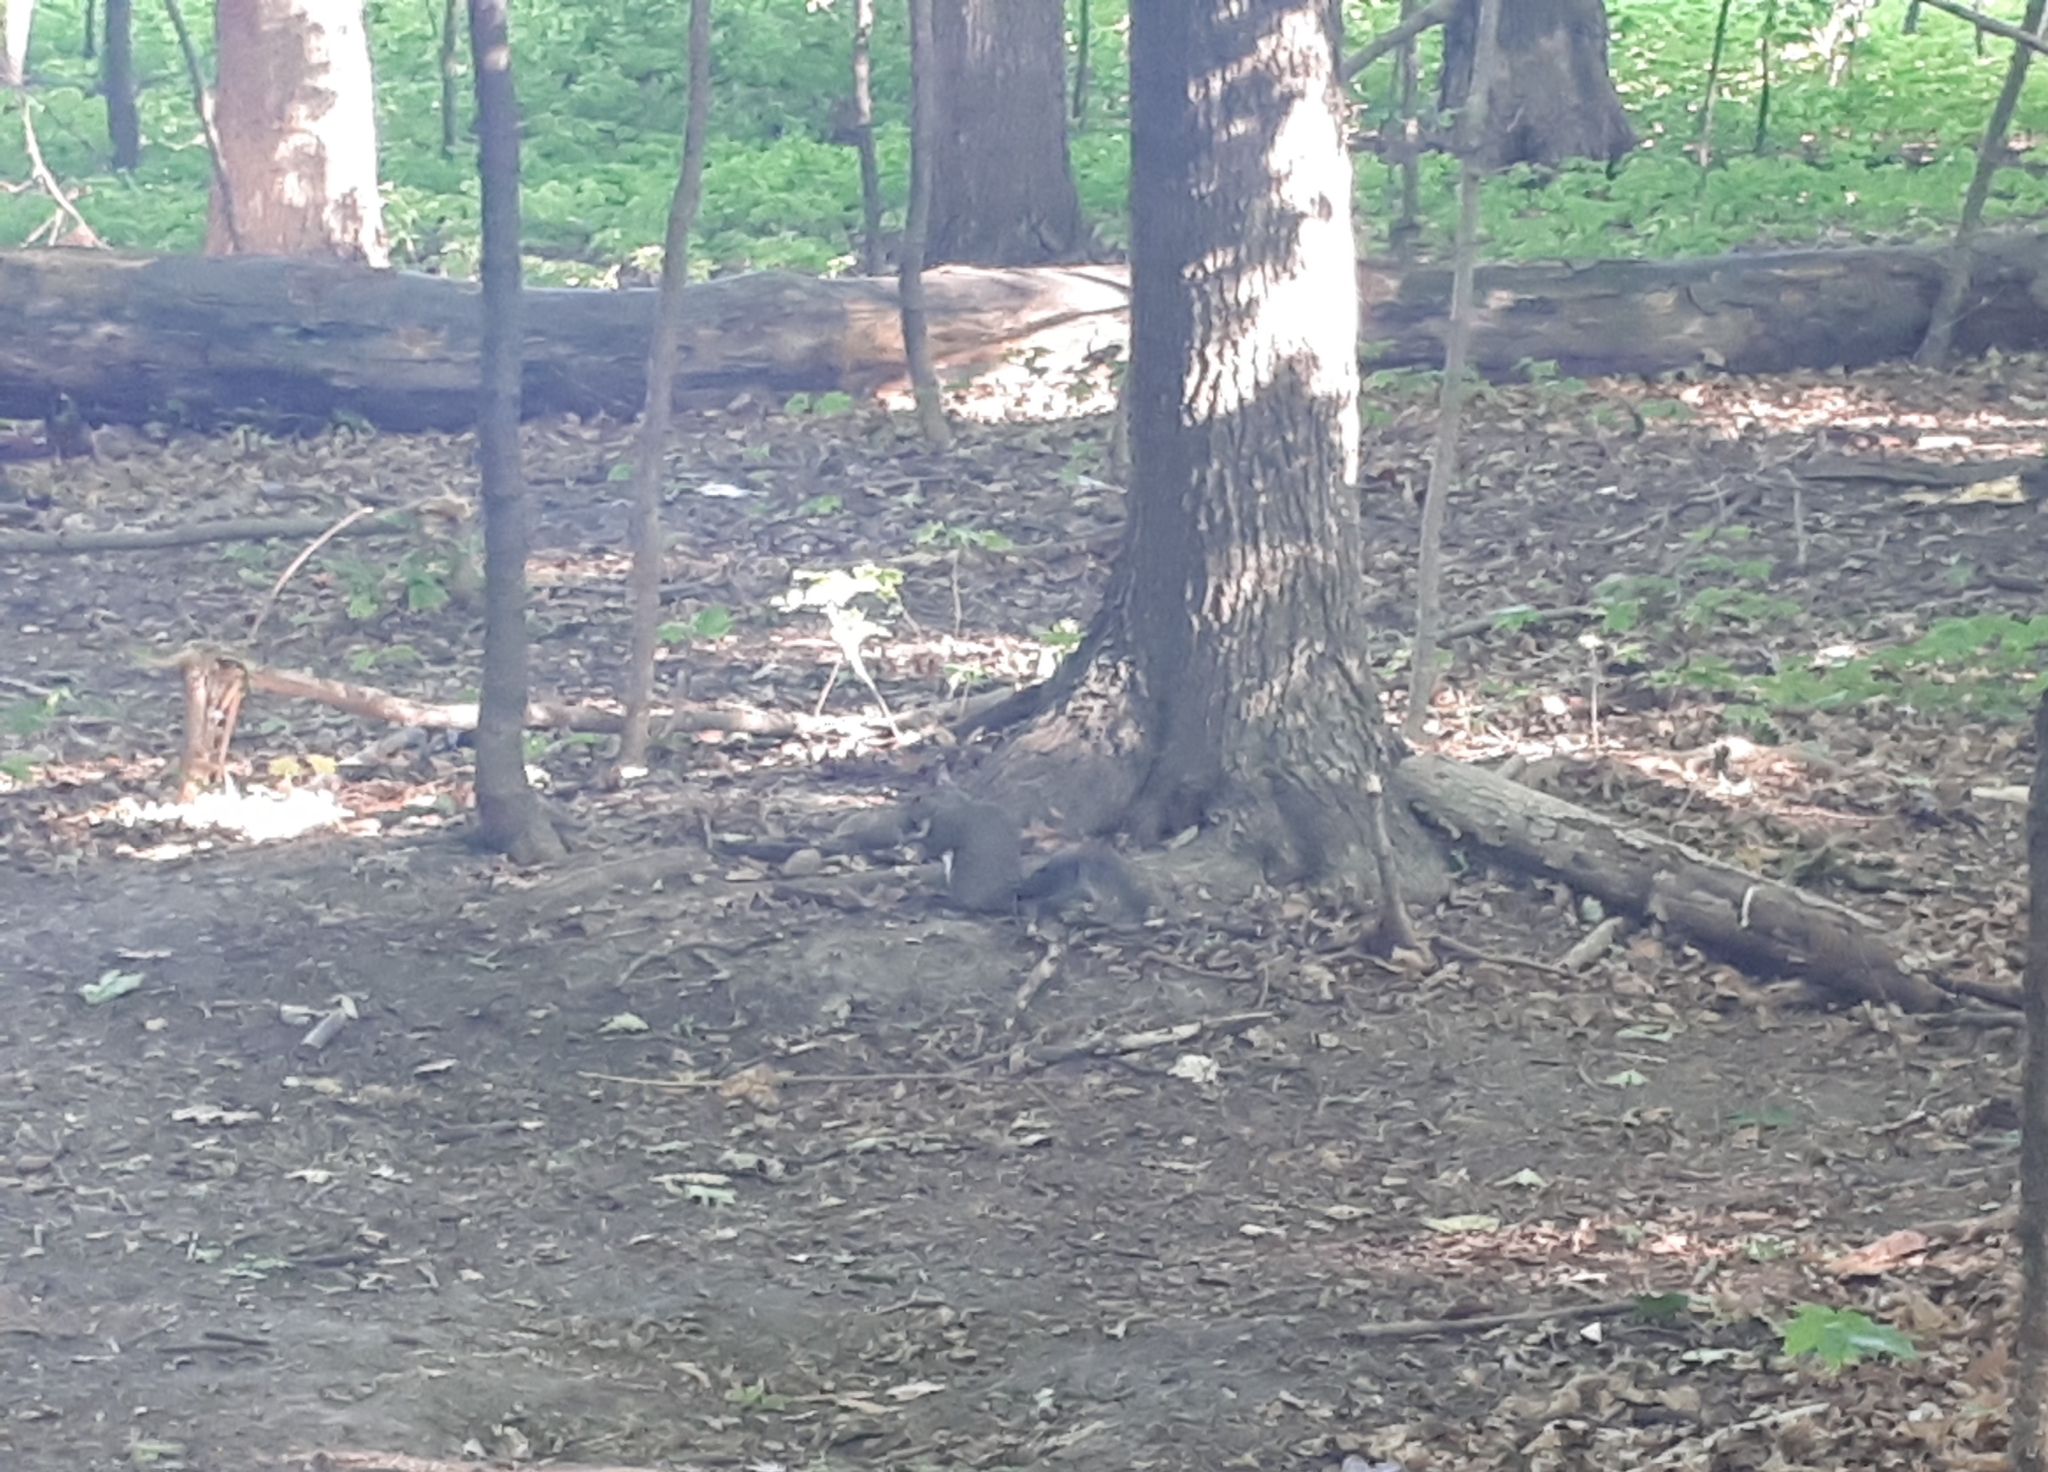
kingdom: Animalia
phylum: Chordata
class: Mammalia
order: Rodentia
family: Sciuridae
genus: Sciurus
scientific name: Sciurus carolinensis
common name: Eastern gray squirrel
